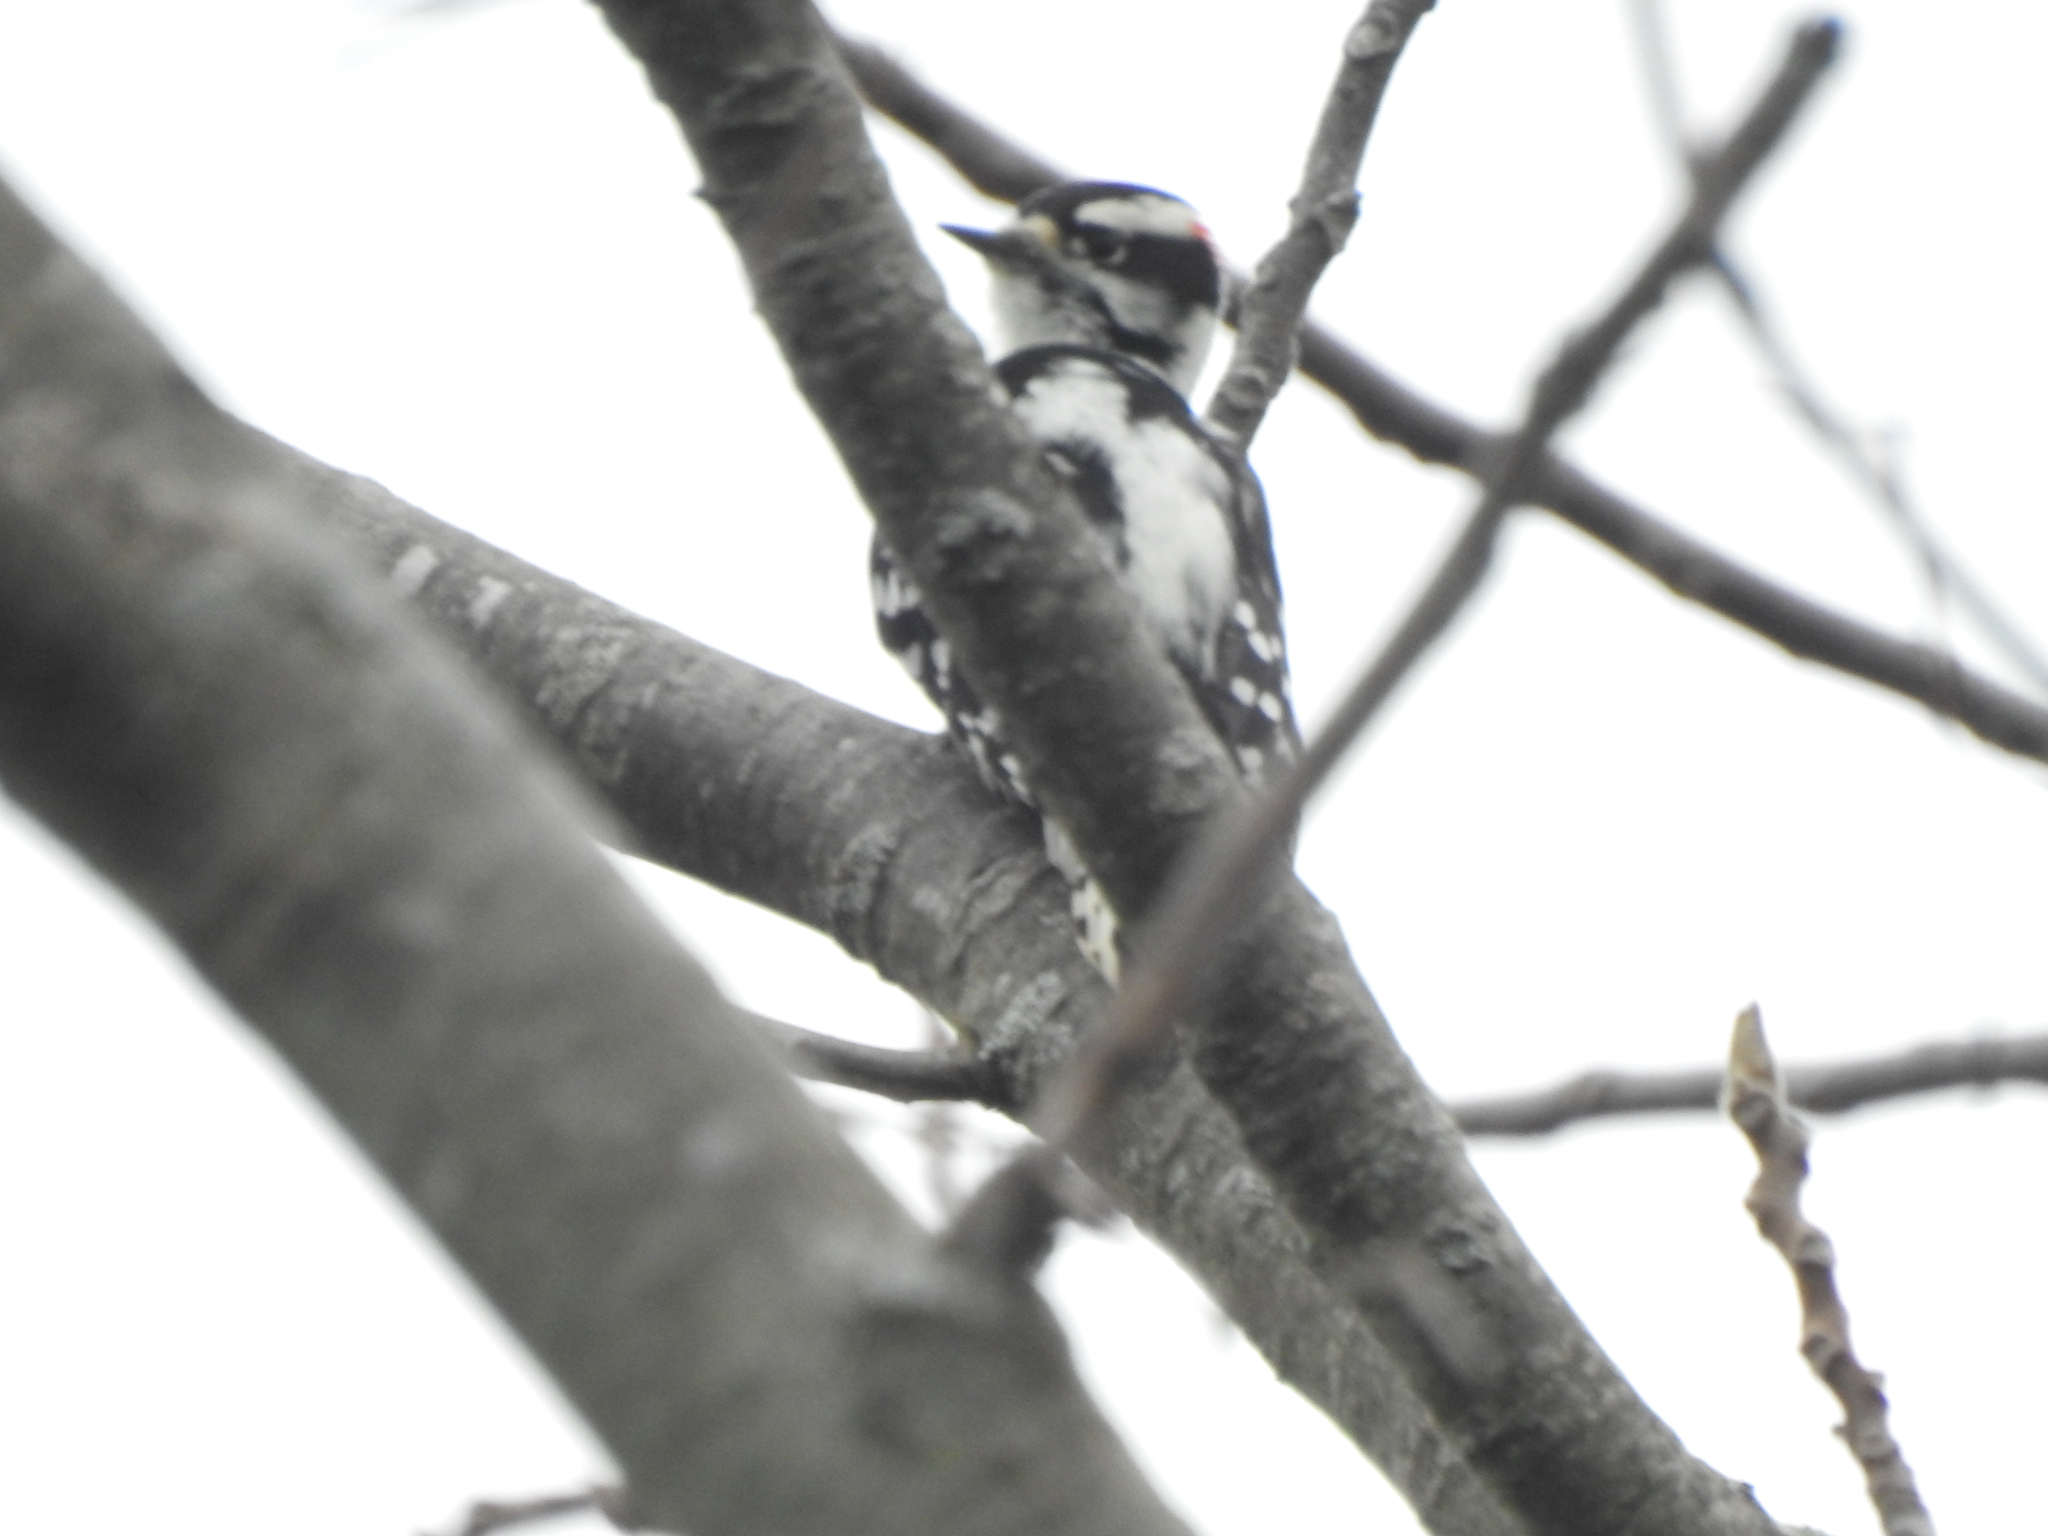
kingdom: Animalia
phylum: Chordata
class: Aves
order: Piciformes
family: Picidae
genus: Dryobates
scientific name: Dryobates pubescens
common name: Downy woodpecker
